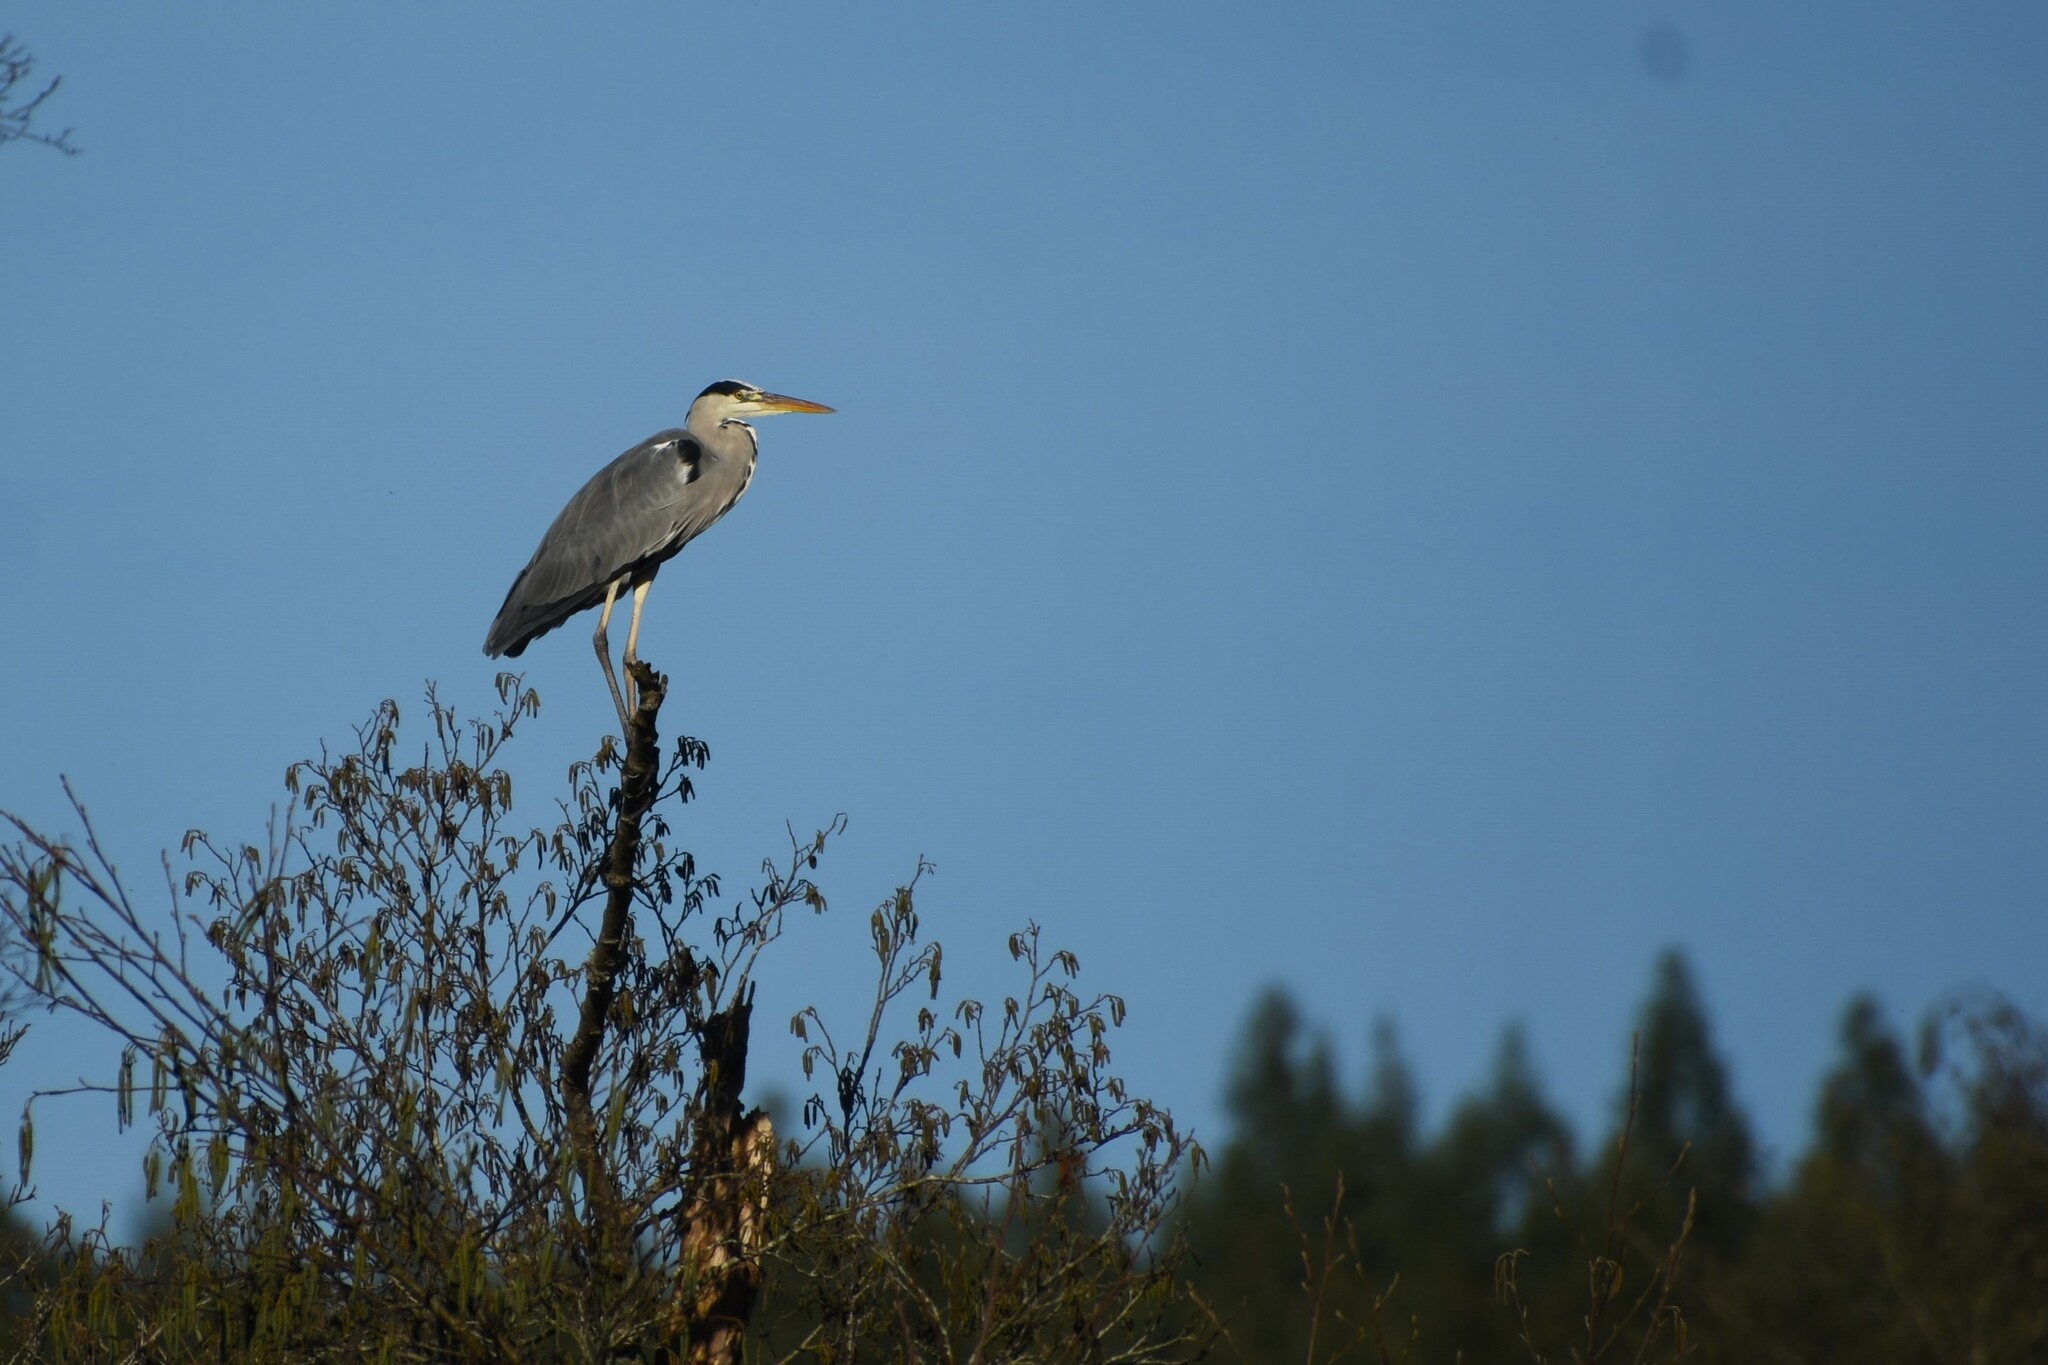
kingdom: Animalia
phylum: Chordata
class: Aves
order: Pelecaniformes
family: Ardeidae
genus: Ardea
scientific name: Ardea cinerea
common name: Grey heron
